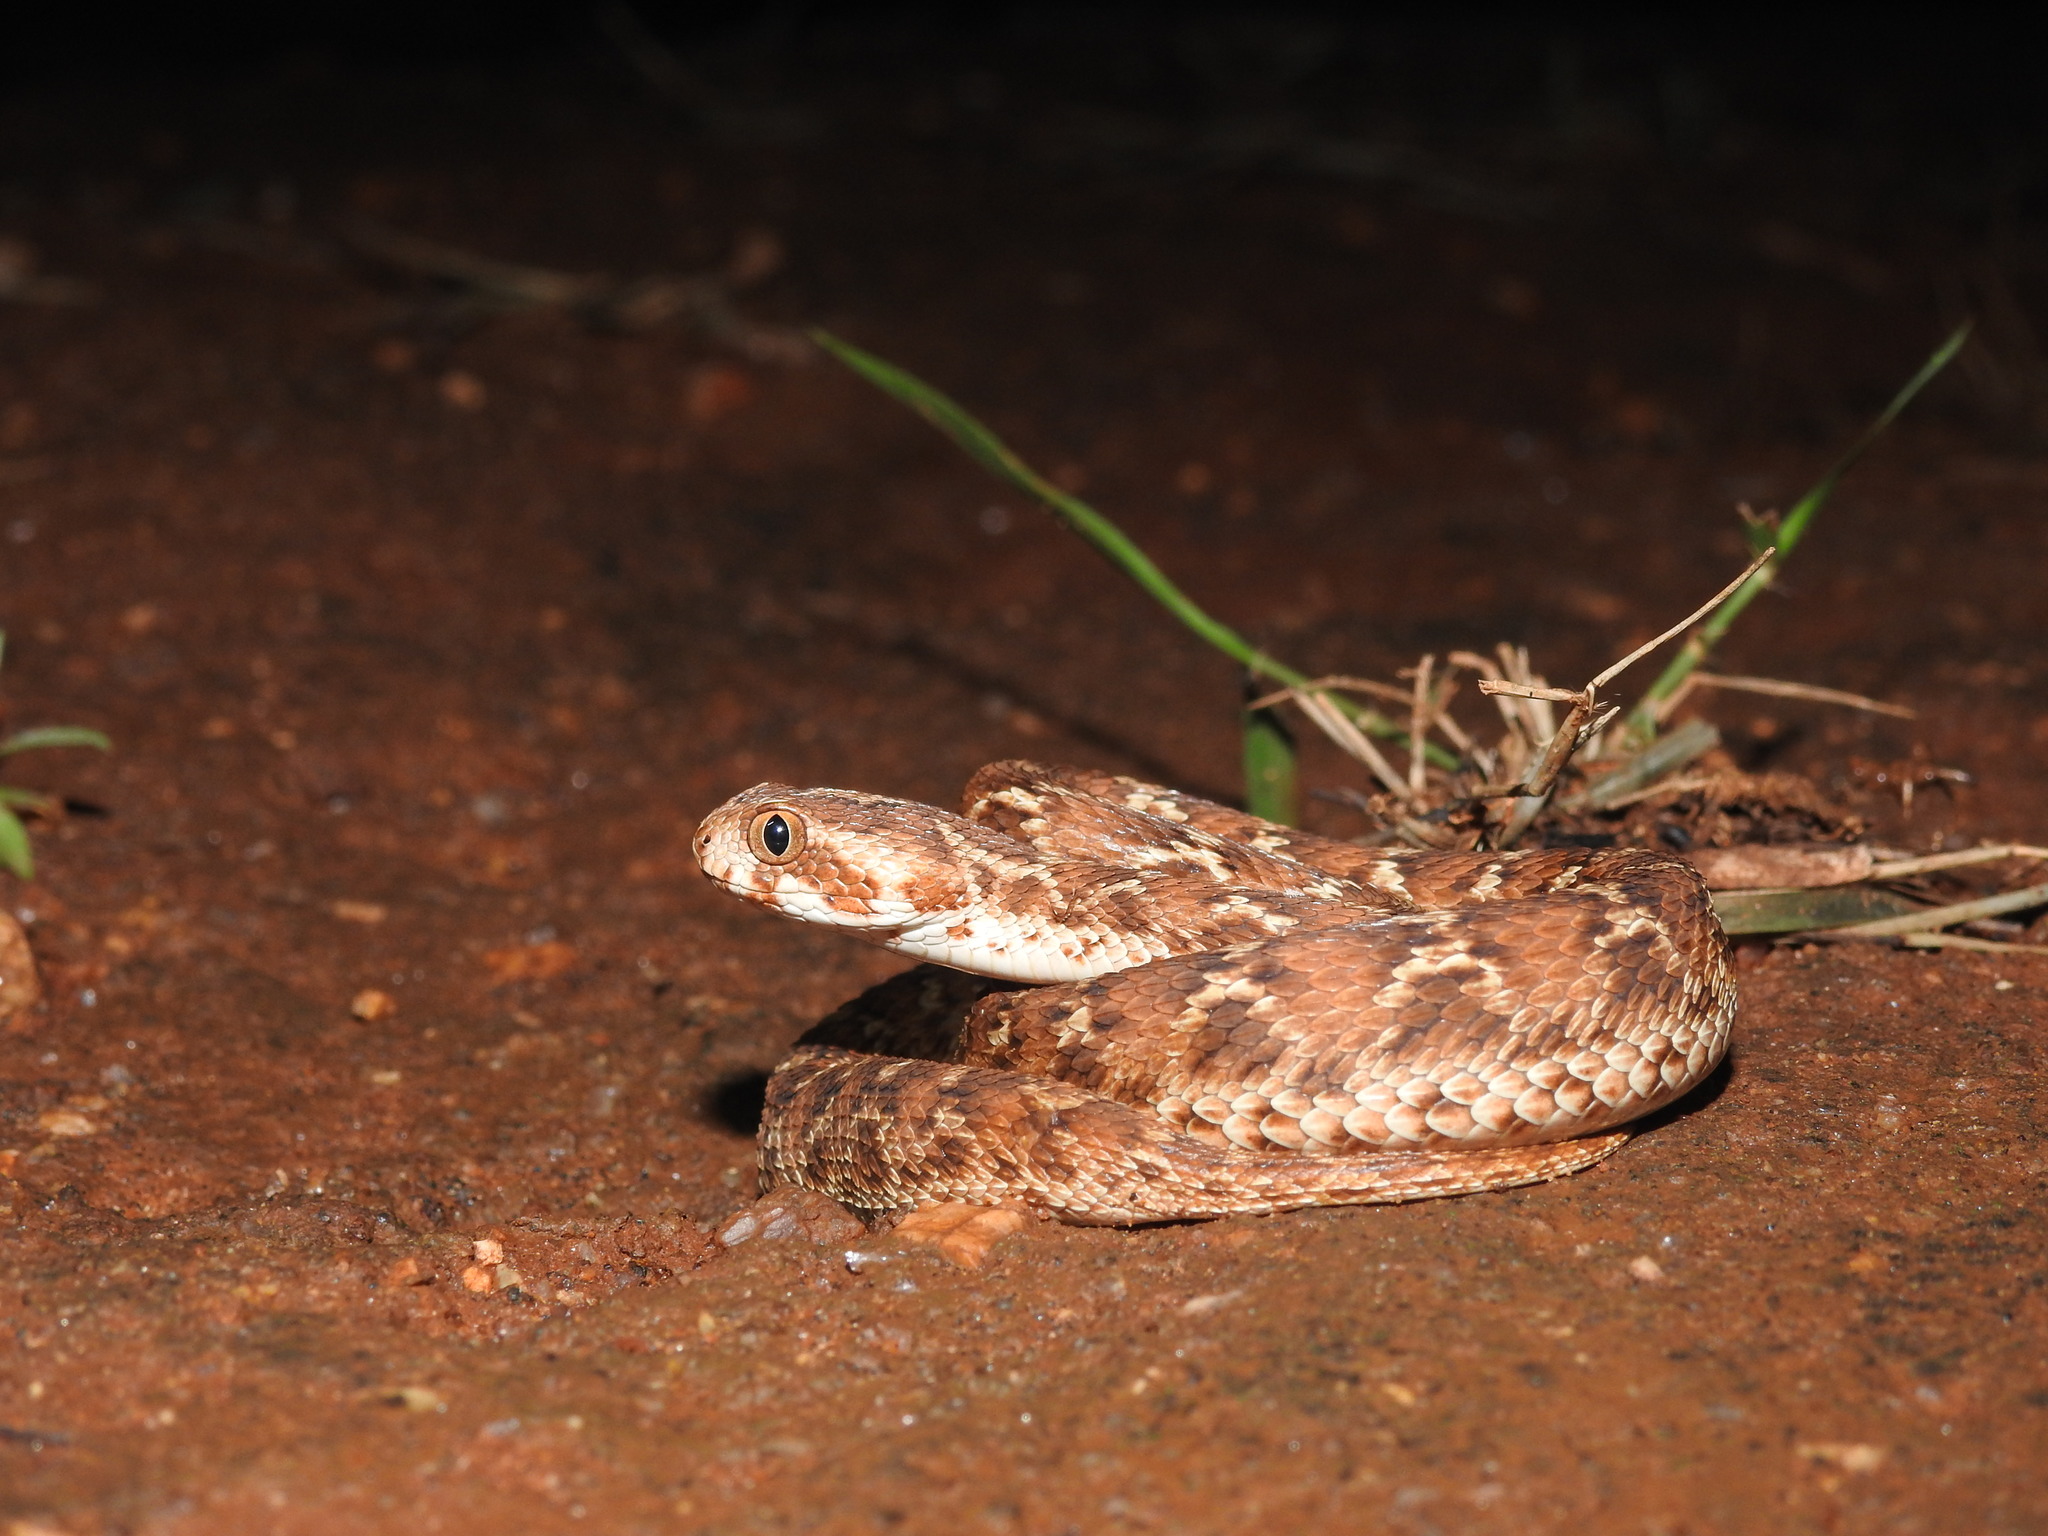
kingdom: Animalia
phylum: Chordata
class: Squamata
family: Viperidae
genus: Echis
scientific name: Echis carinatus
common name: Saw-scaled viper
